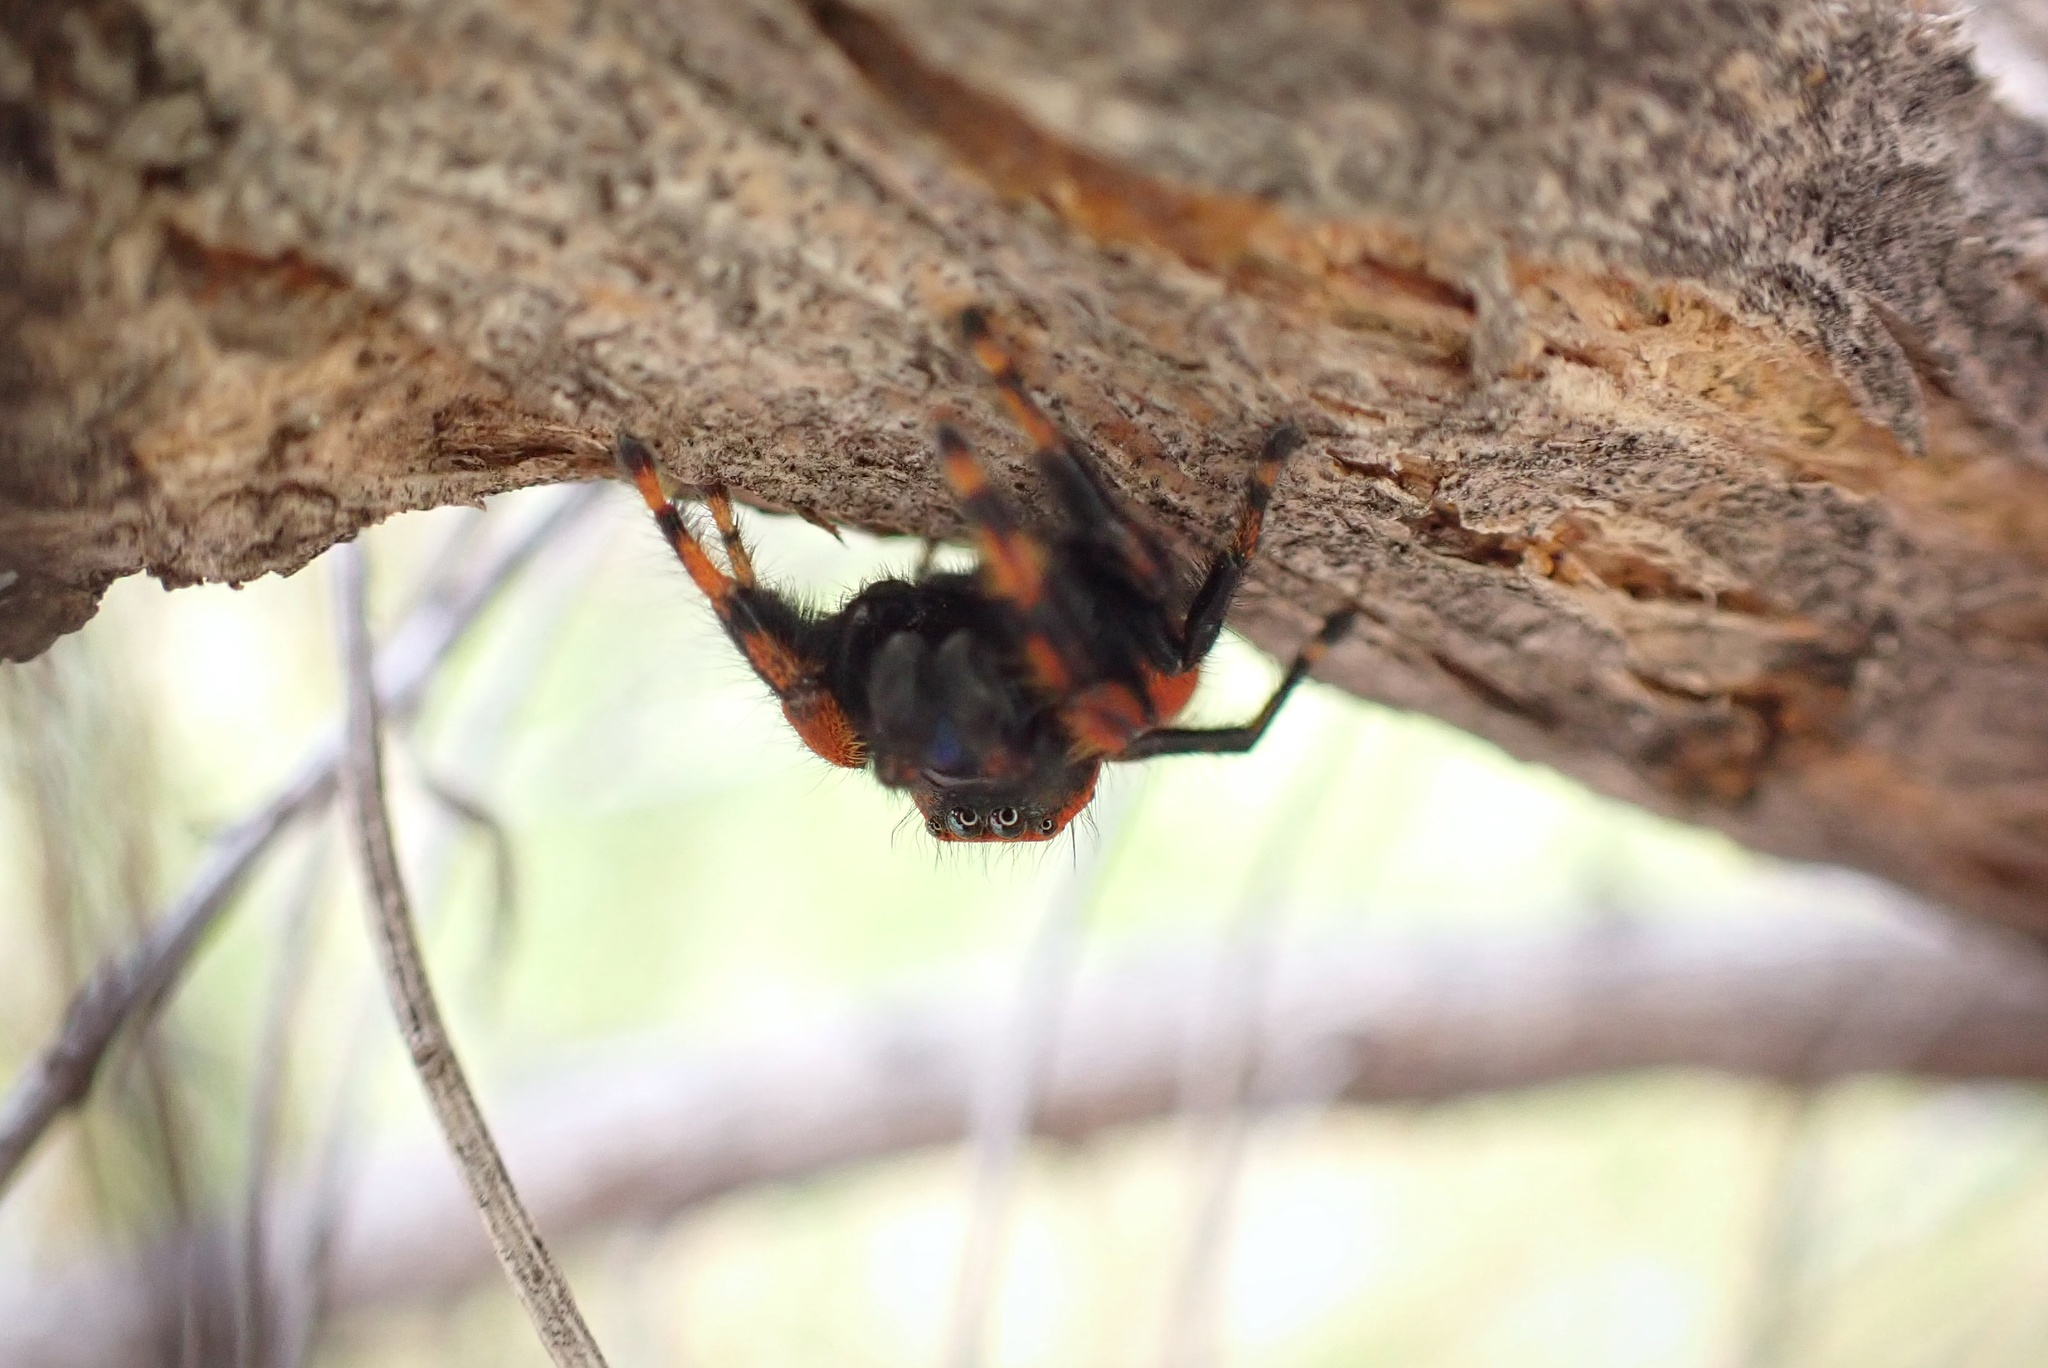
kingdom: Animalia
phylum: Arthropoda
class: Arachnida
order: Araneae
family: Salticidae
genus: Phidippus
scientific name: Phidippus nikites
